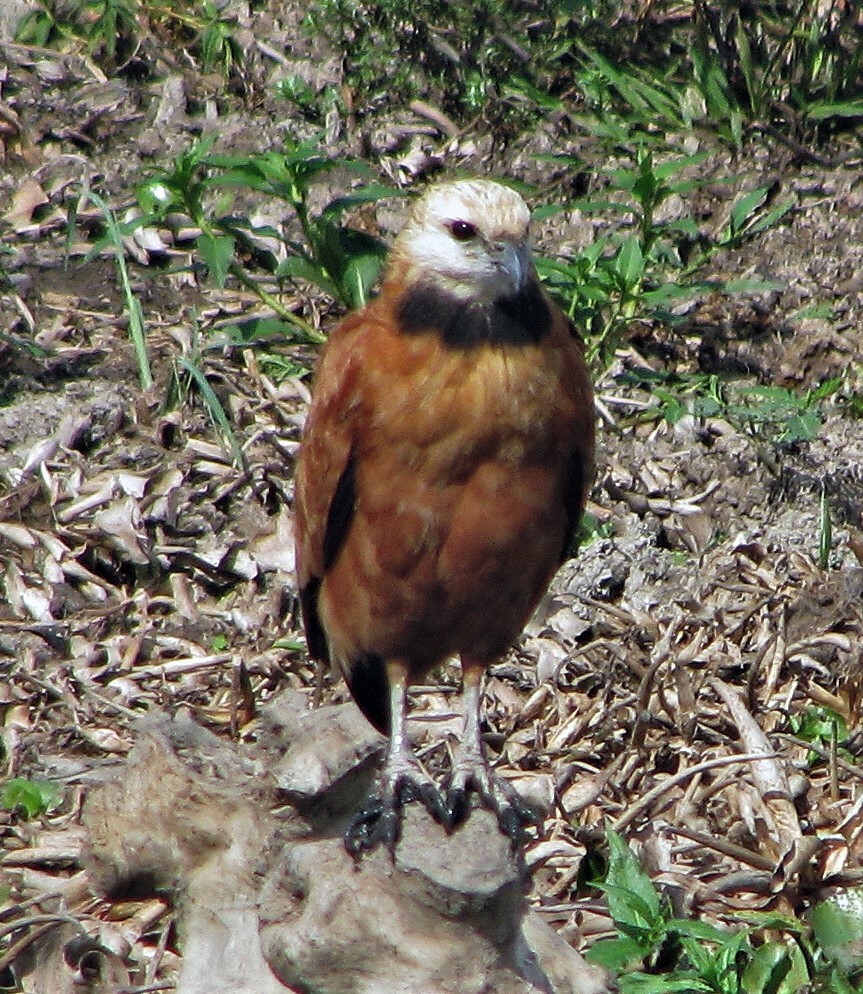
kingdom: Animalia
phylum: Chordata
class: Aves
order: Accipitriformes
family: Accipitridae
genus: Busarellus
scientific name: Busarellus nigricollis
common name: Black-collared hawk
